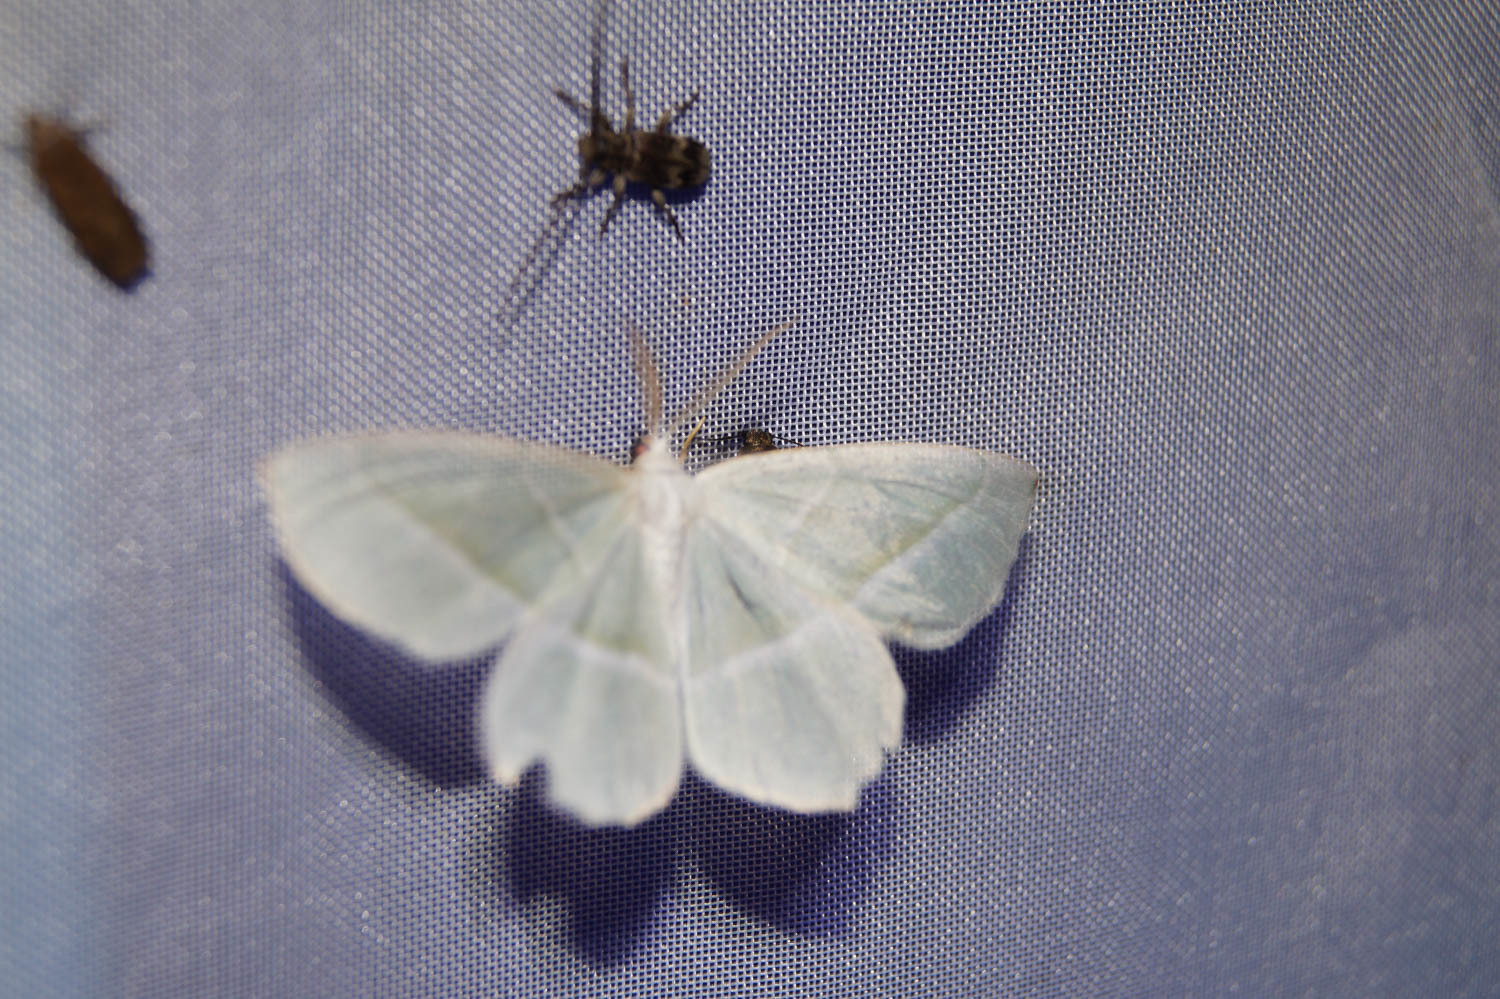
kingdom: Animalia
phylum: Arthropoda
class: Insecta
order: Lepidoptera
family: Geometridae
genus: Campaea
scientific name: Campaea margaritaria
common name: Light emerald
